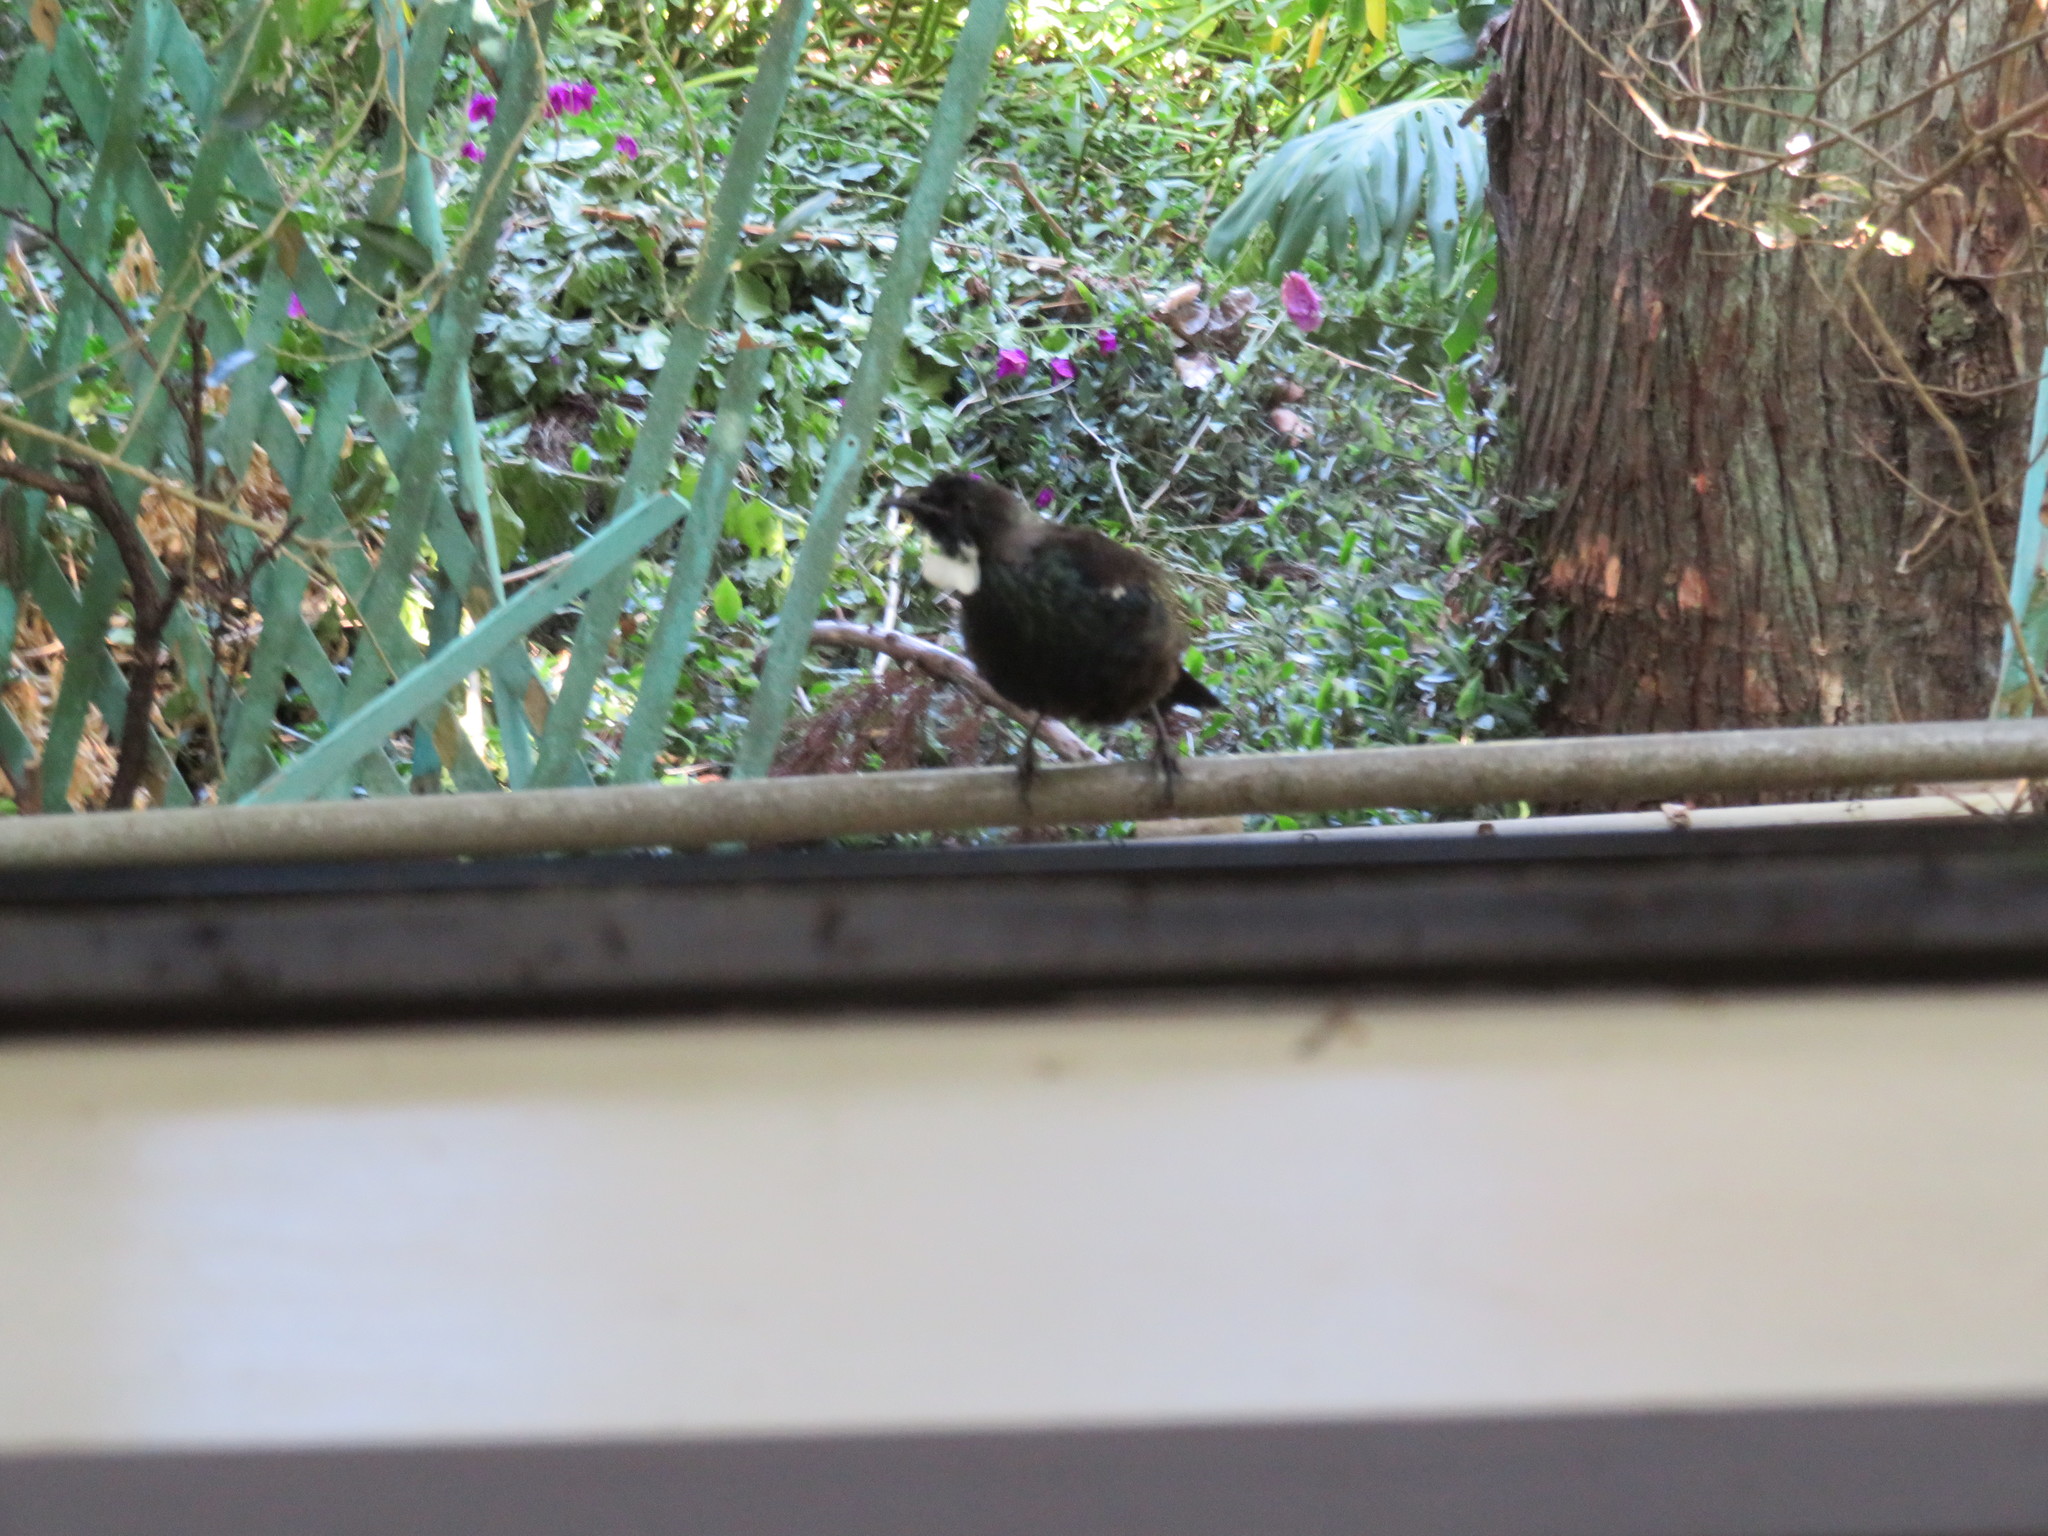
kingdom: Animalia
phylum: Chordata
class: Aves
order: Passeriformes
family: Meliphagidae
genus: Prosthemadera
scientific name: Prosthemadera novaeseelandiae
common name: Tui
